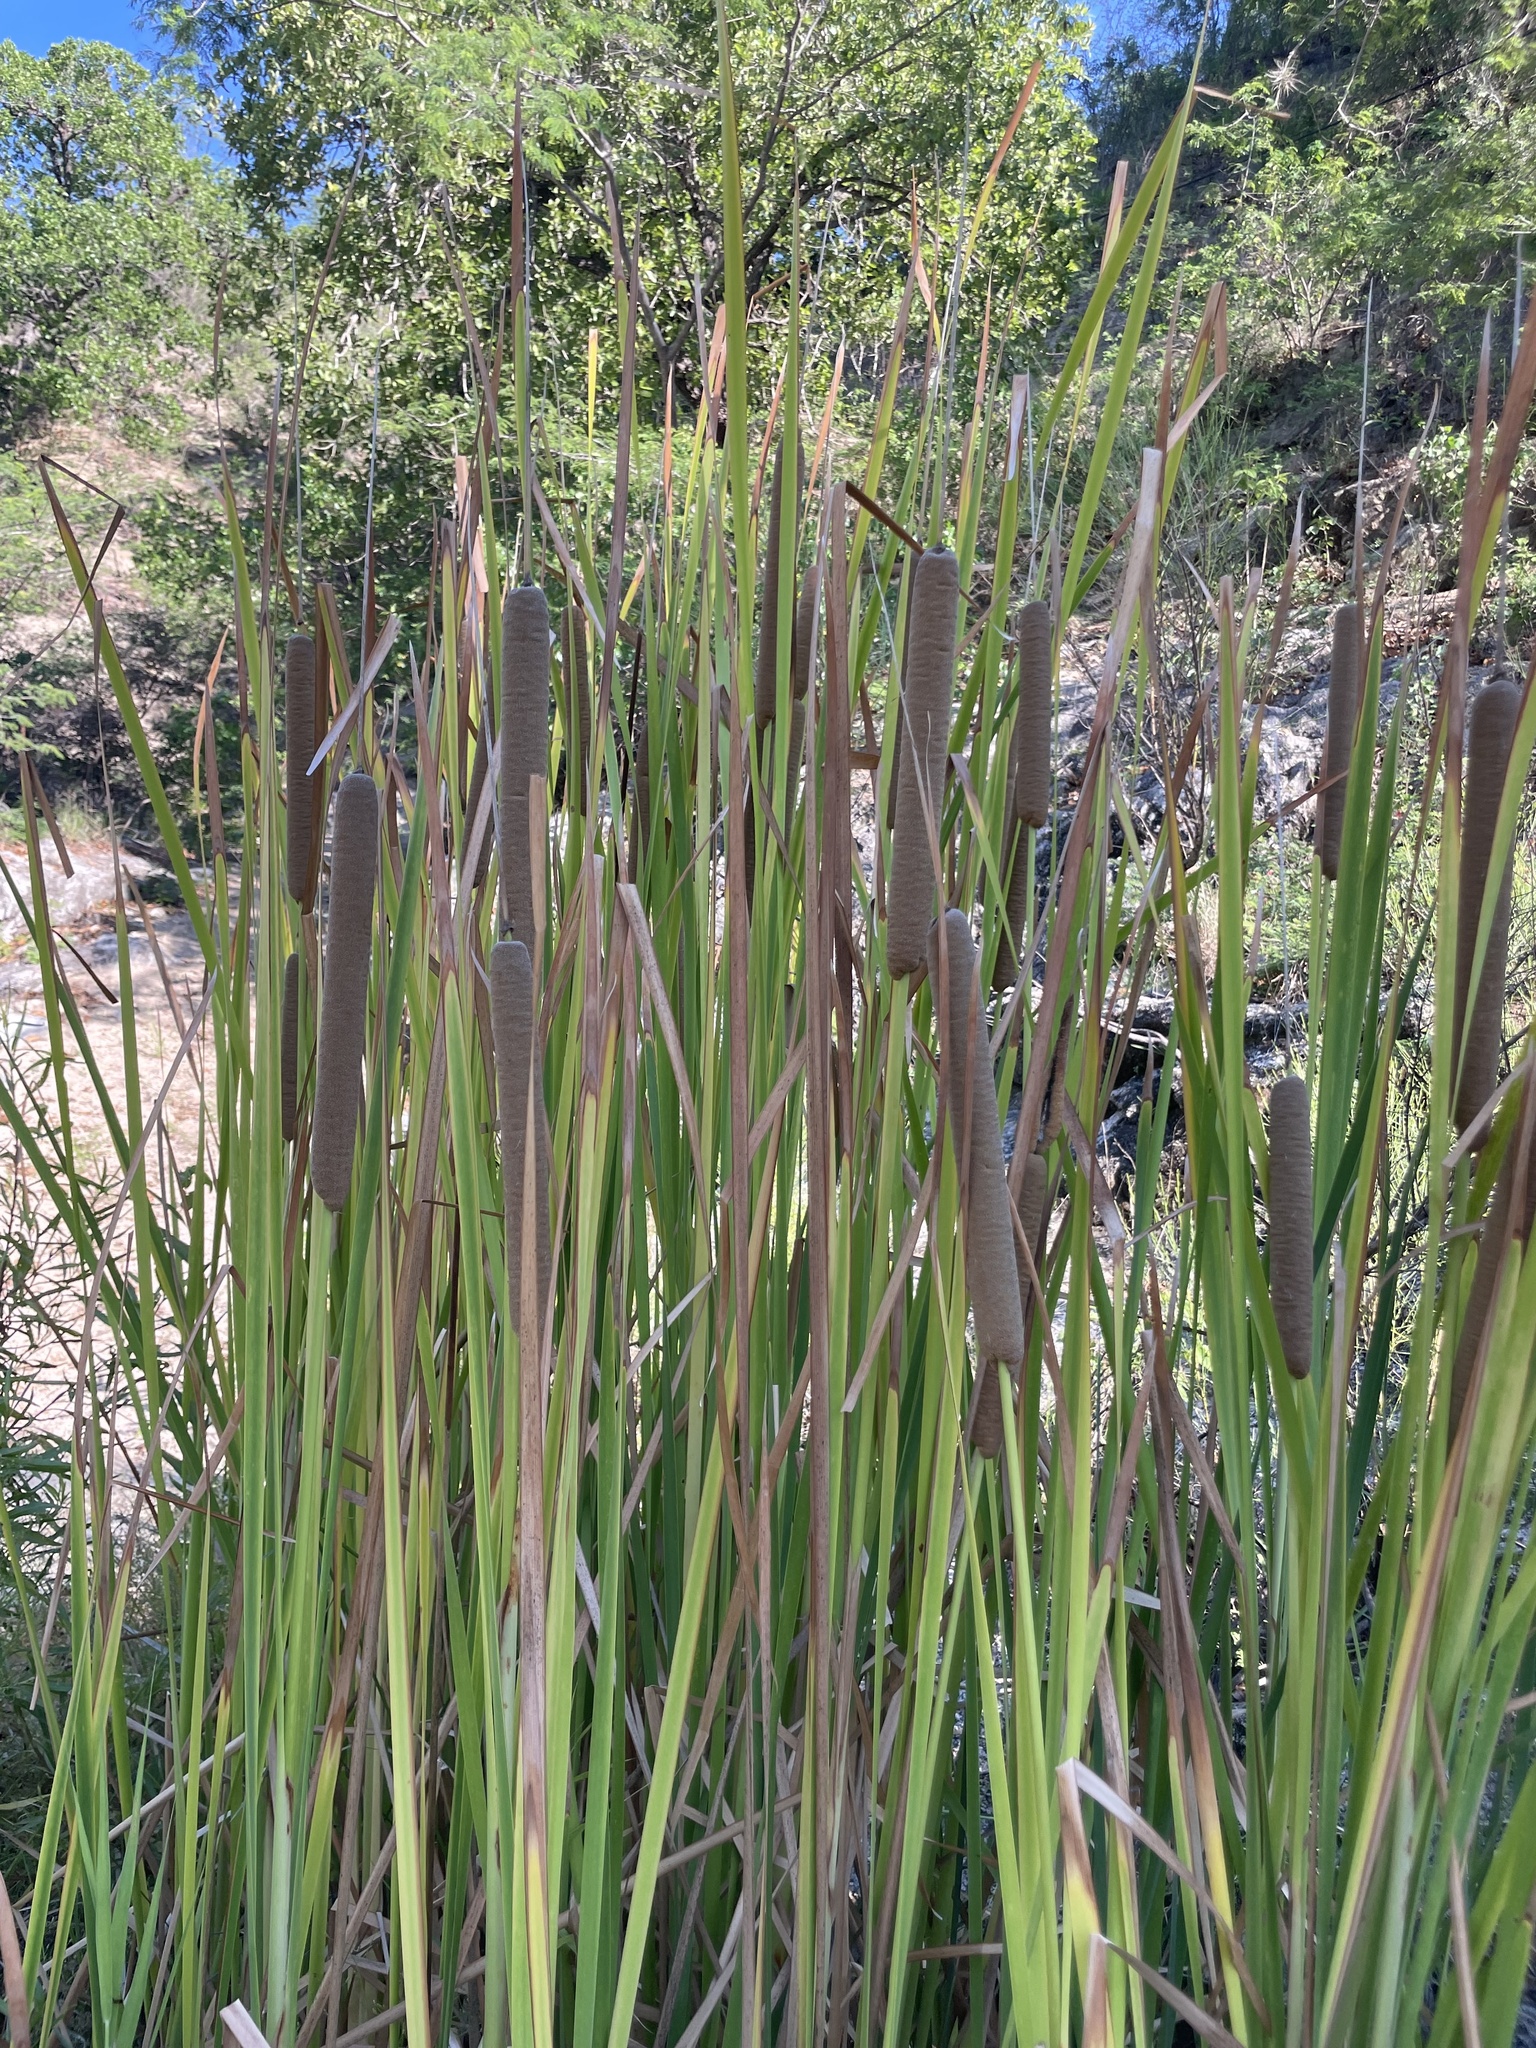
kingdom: Plantae
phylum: Tracheophyta
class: Liliopsida
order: Poales
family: Typhaceae
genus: Typha
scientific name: Typha domingensis
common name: Southern cattail
